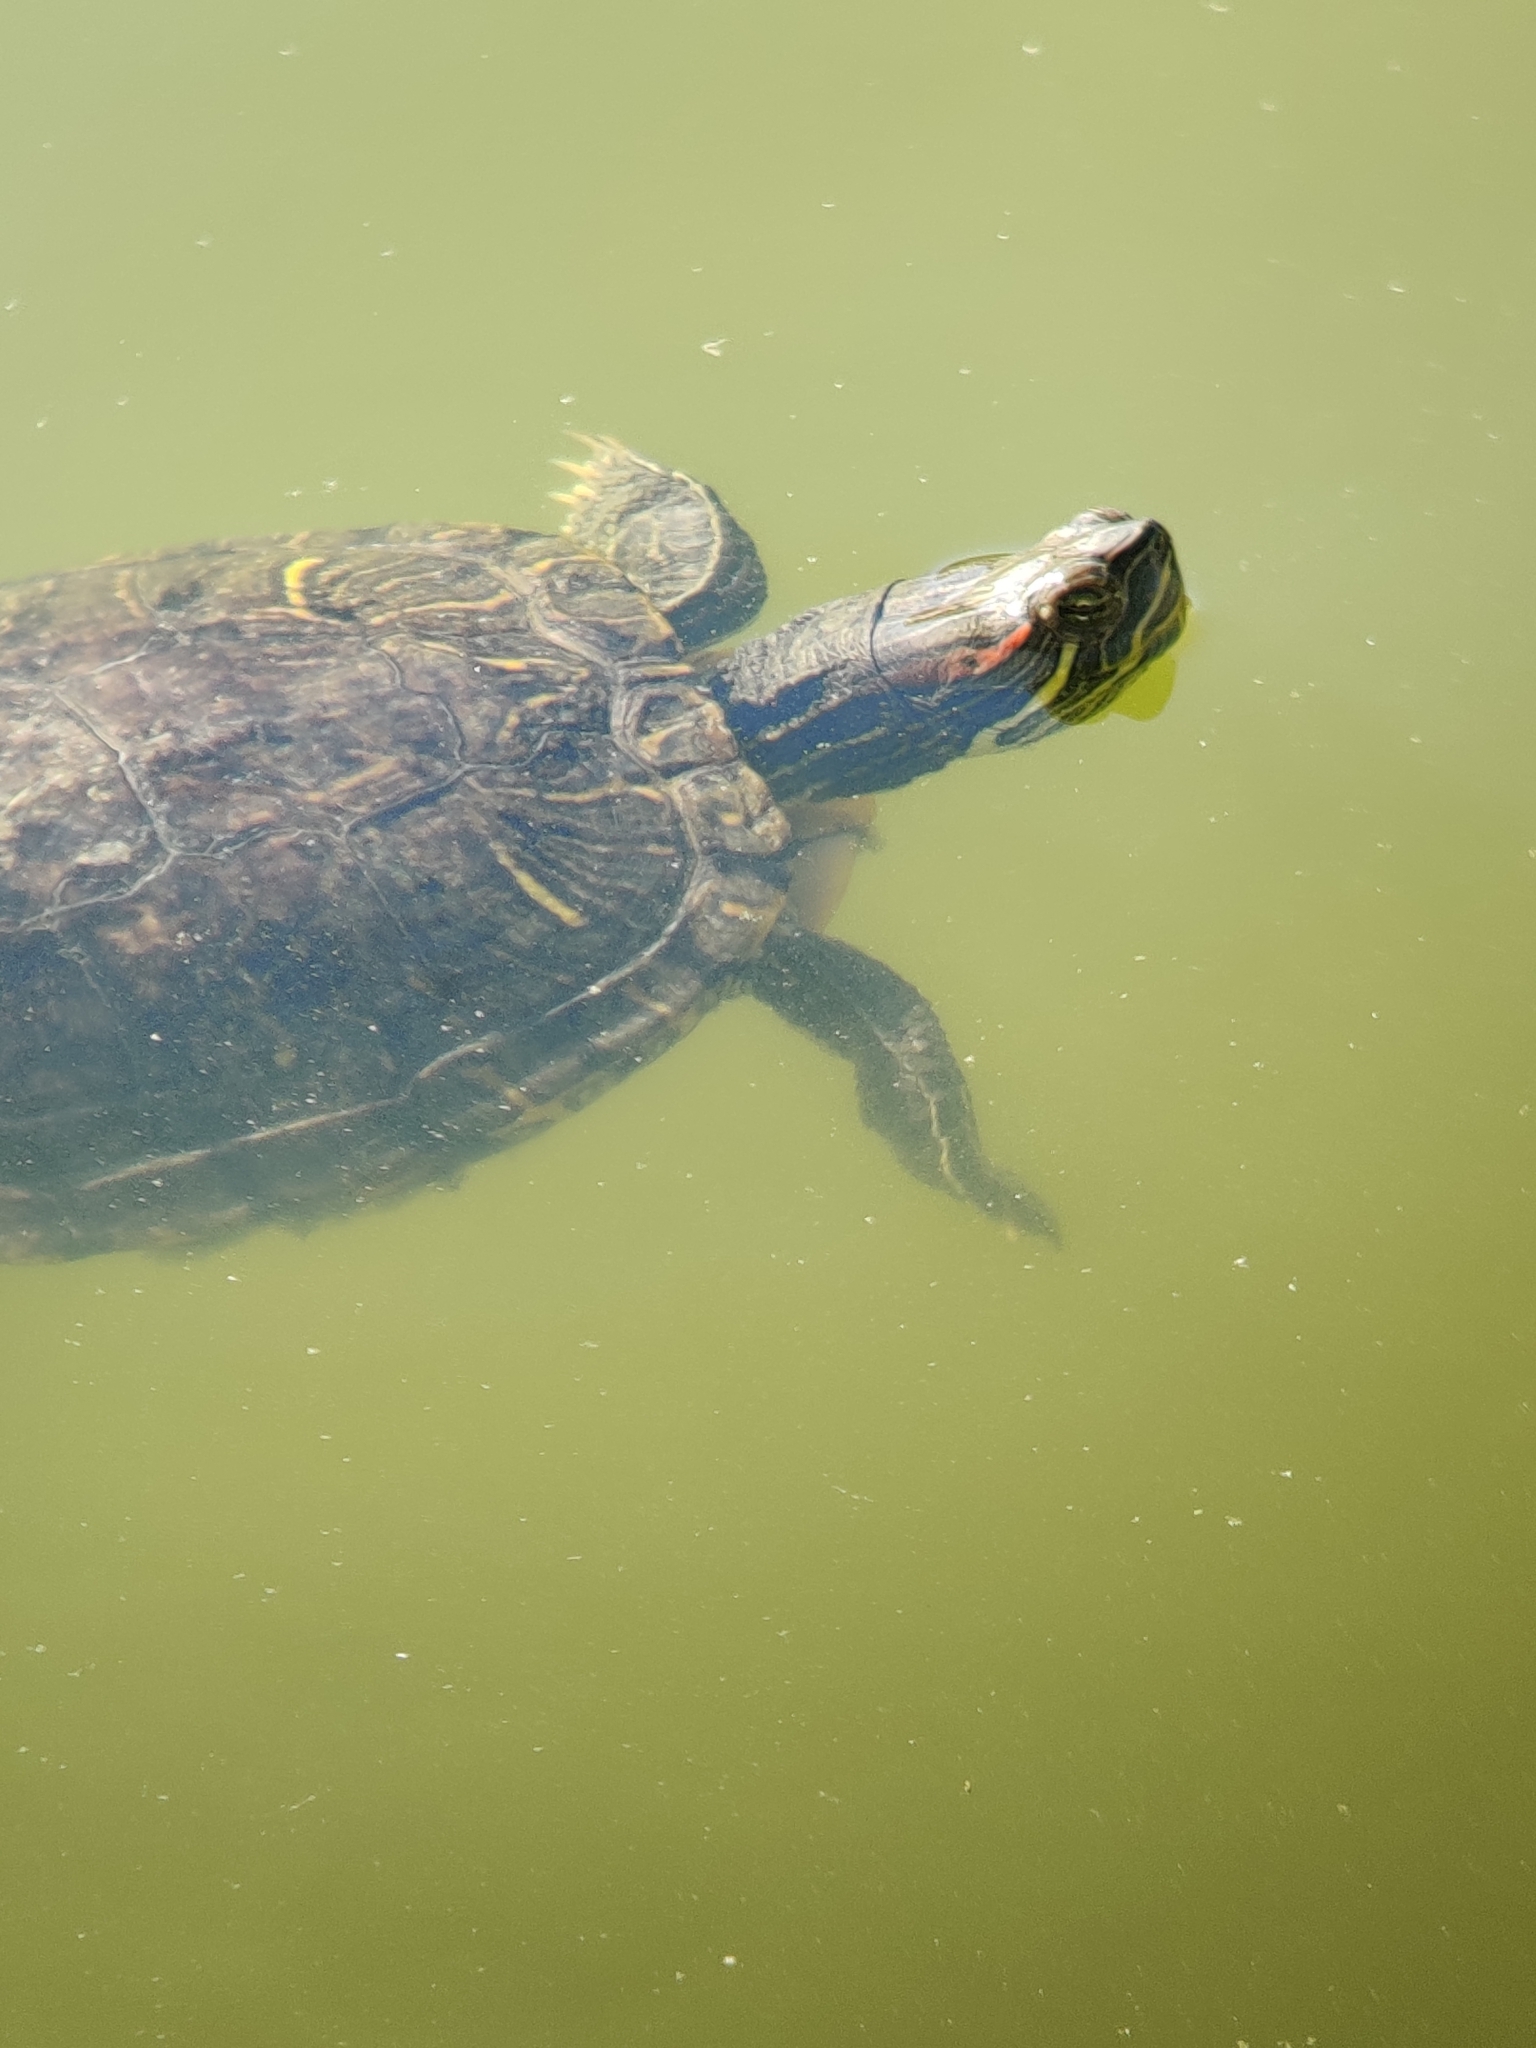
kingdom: Animalia
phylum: Chordata
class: Testudines
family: Emydidae
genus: Trachemys
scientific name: Trachemys scripta
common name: Slider
